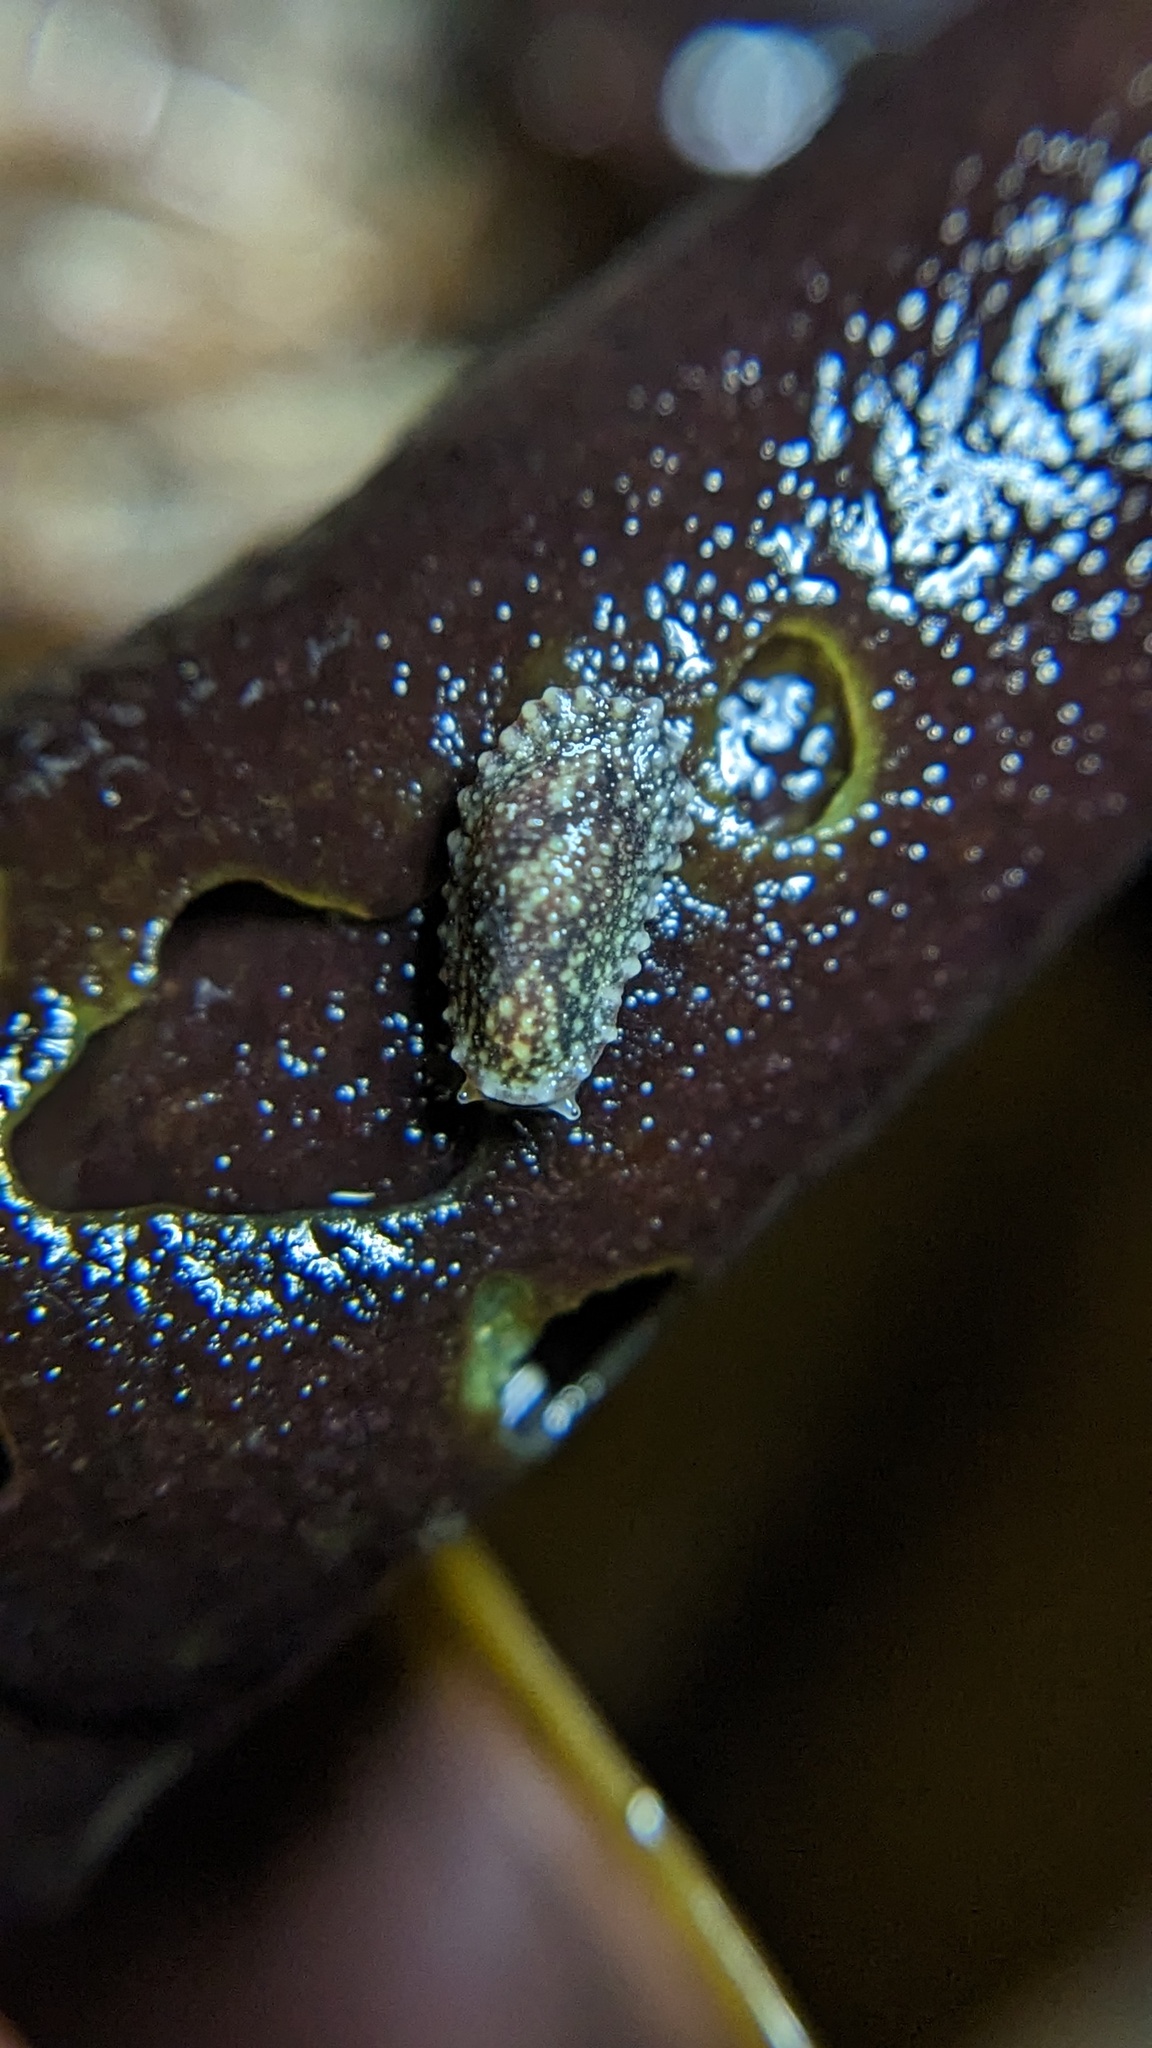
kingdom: Animalia
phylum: Mollusca
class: Gastropoda
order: Systellommatophora
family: Onchidiidae
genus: Onchidella
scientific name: Onchidella carpenteri
